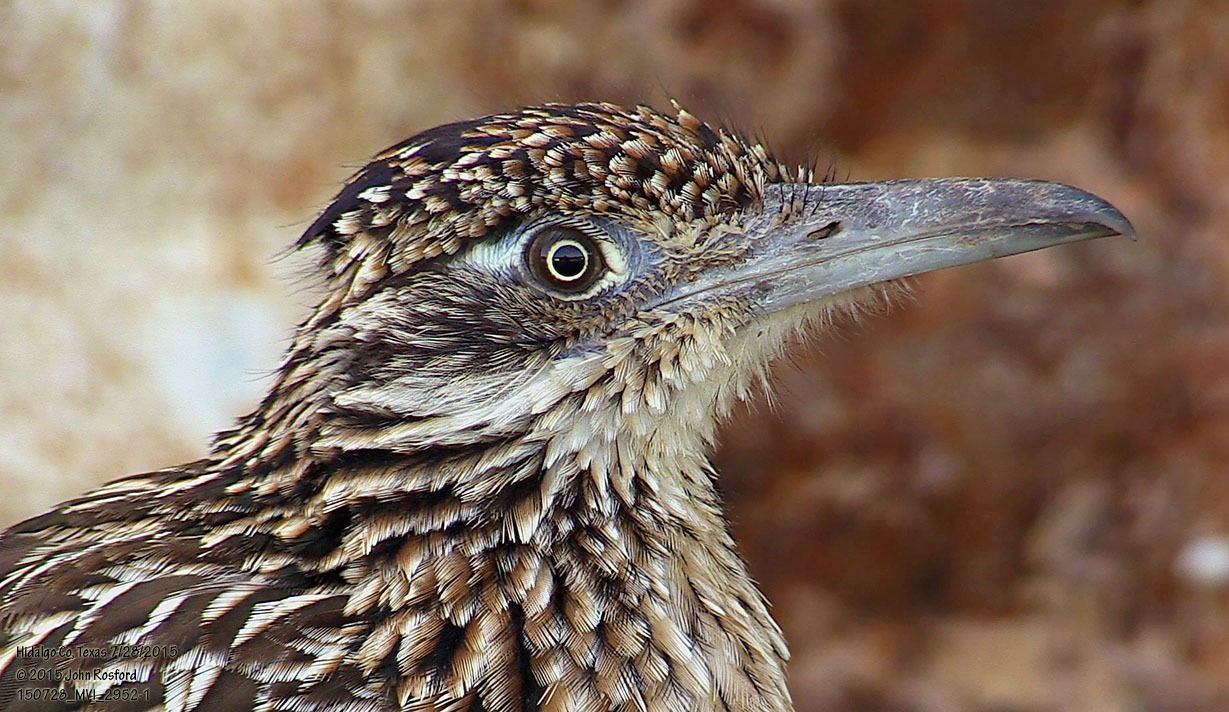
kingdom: Animalia
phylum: Chordata
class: Aves
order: Cuculiformes
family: Cuculidae
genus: Geococcyx
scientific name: Geococcyx californianus
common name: Greater roadrunner
